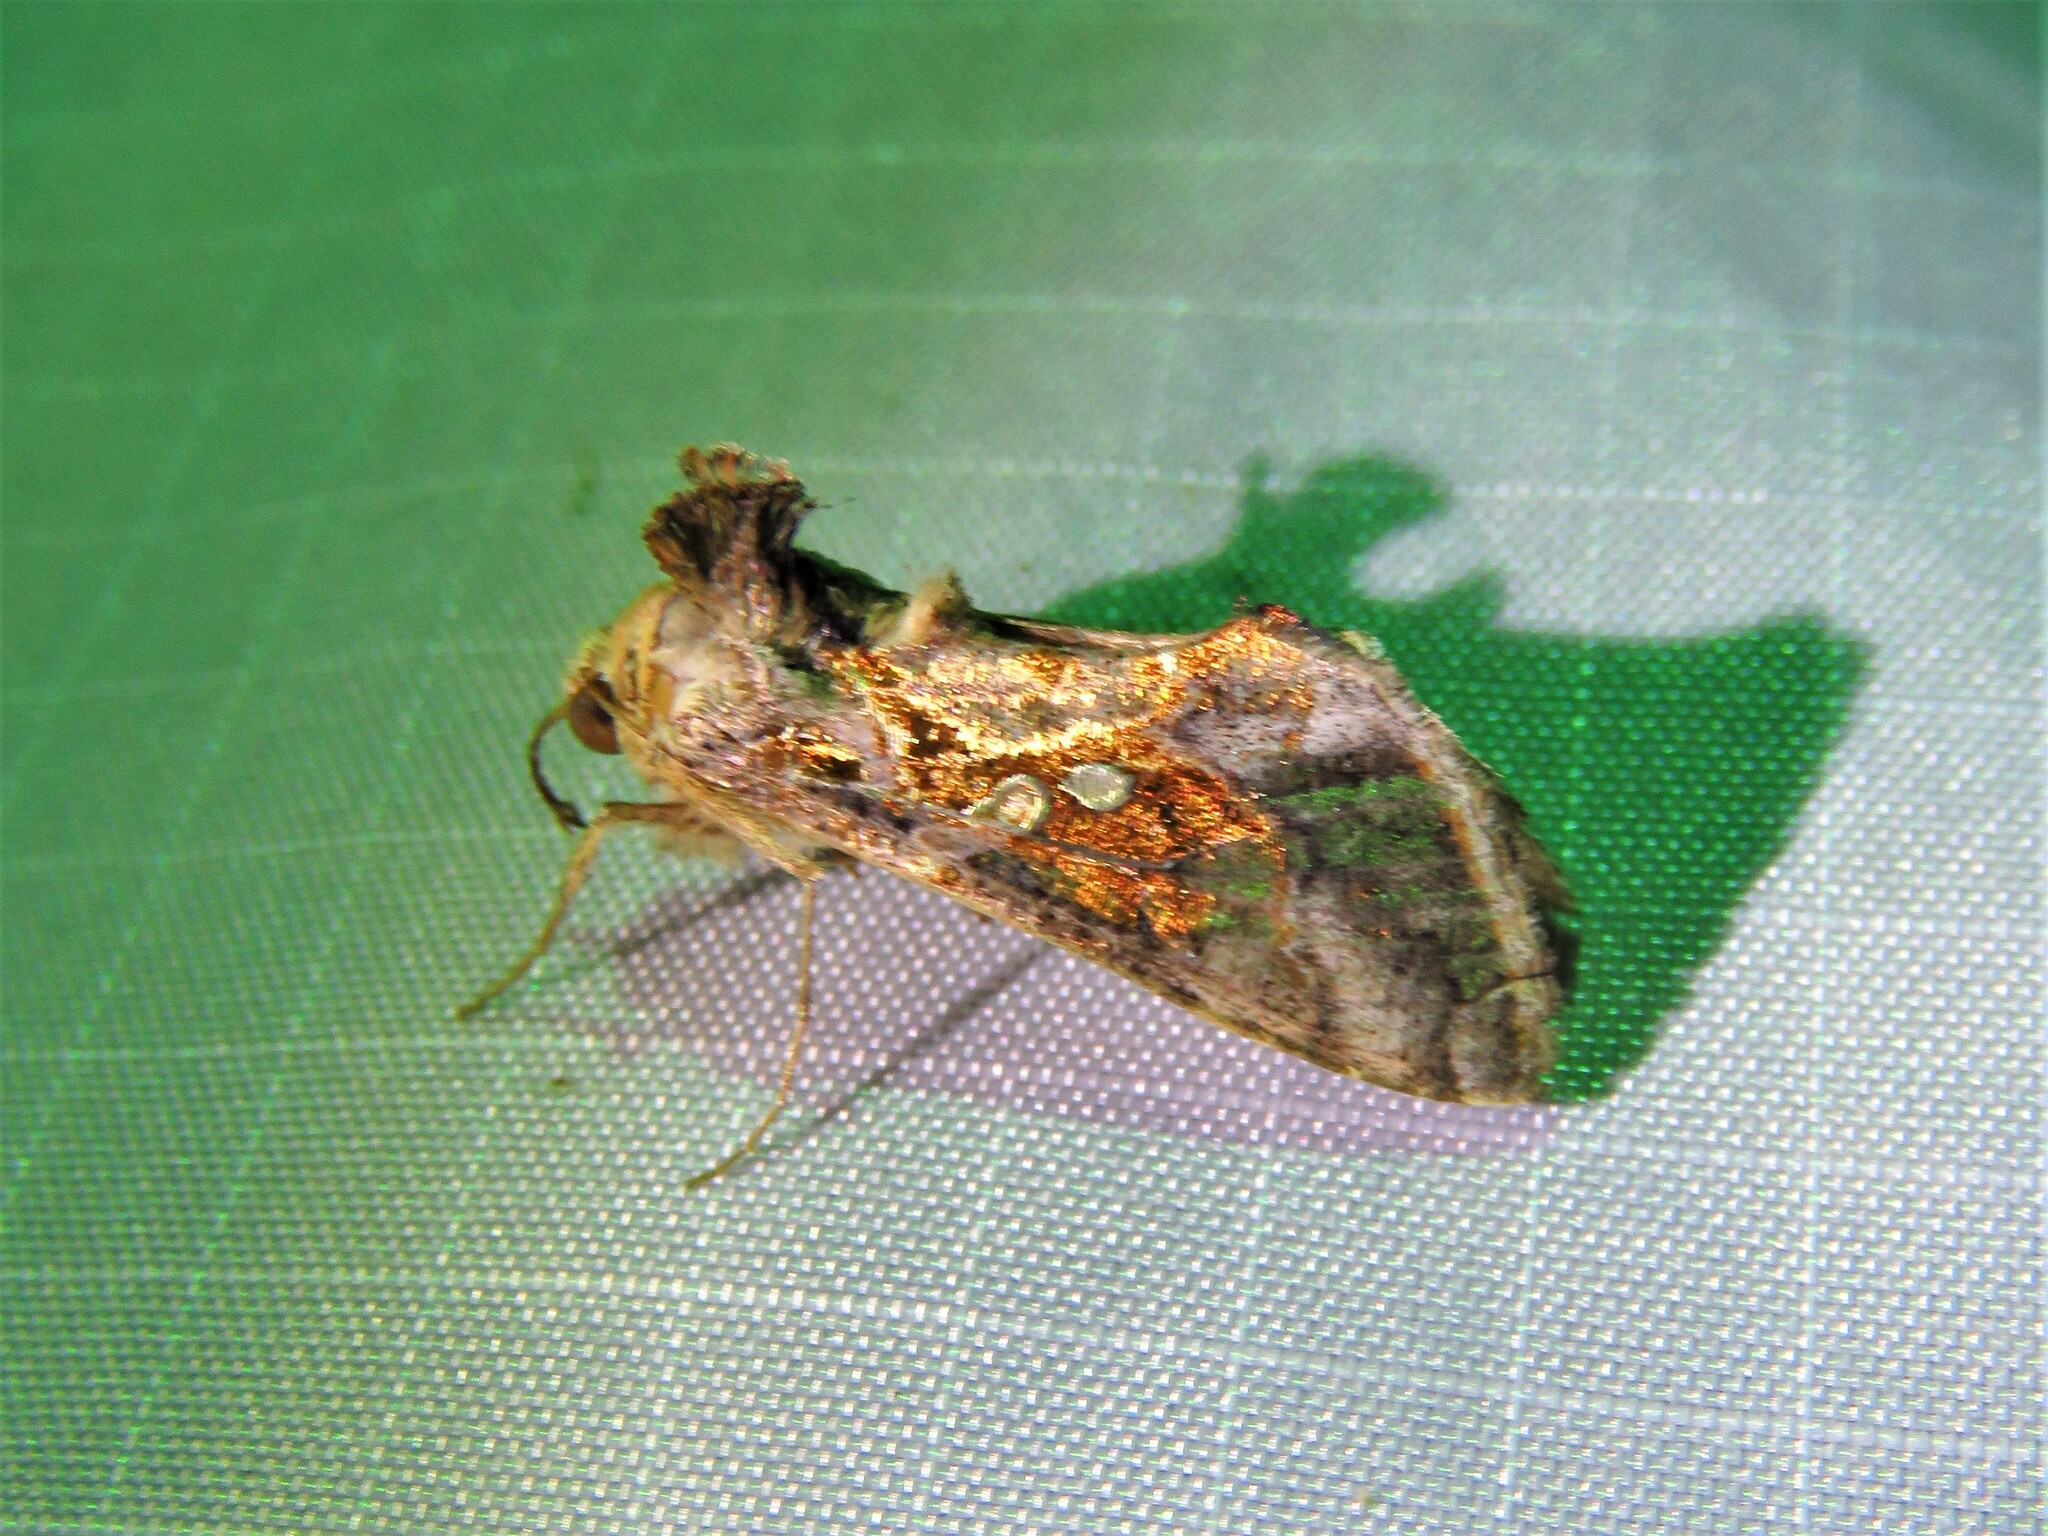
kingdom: Animalia
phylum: Arthropoda
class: Insecta
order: Lepidoptera
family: Noctuidae
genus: Chrysodeixis
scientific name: Chrysodeixis includens
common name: Cutworm moth
